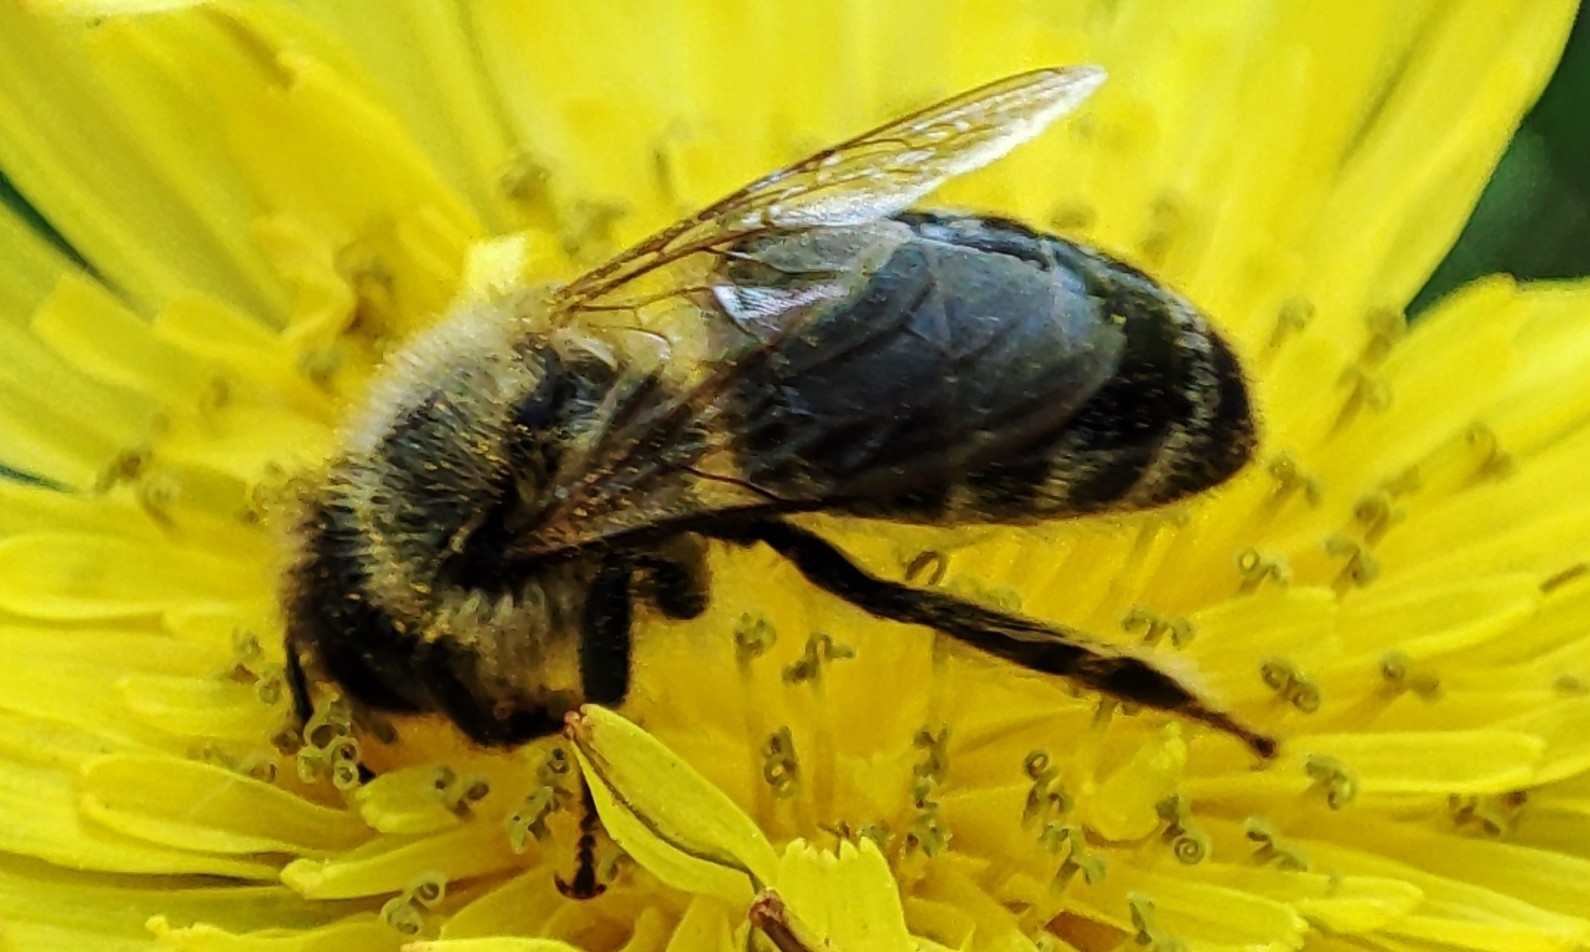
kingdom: Animalia
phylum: Arthropoda
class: Insecta
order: Hymenoptera
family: Apidae
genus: Apis
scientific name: Apis mellifera
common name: Honey bee
